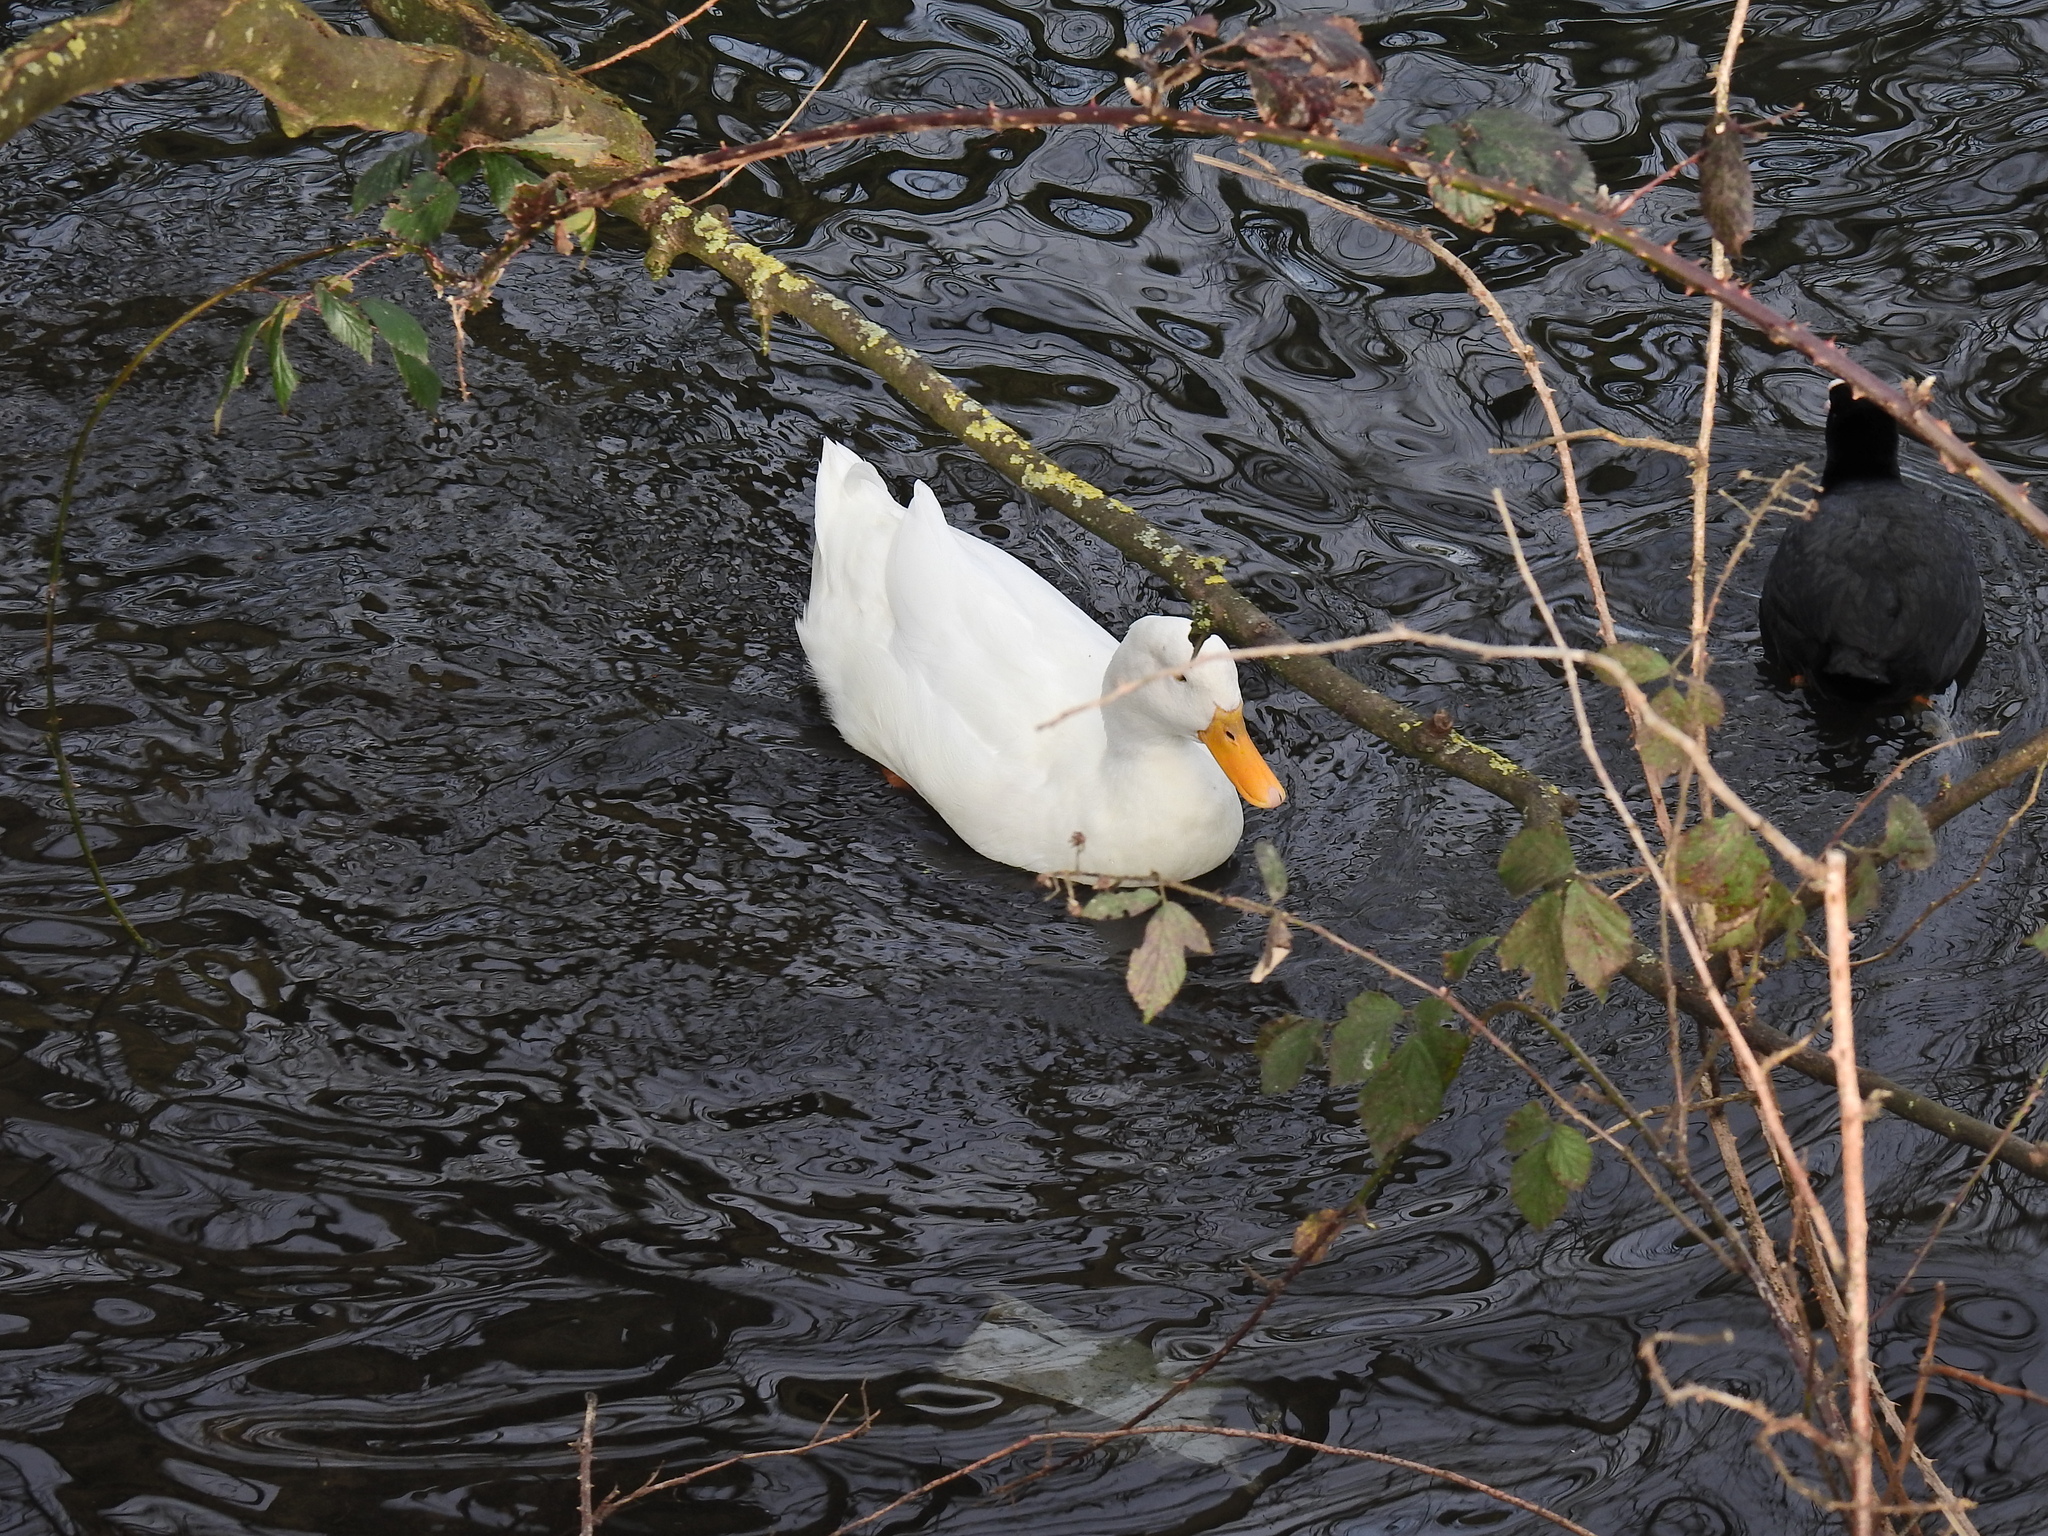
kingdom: Animalia
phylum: Chordata
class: Aves
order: Anseriformes
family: Anatidae
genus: Anas
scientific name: Anas platyrhynchos
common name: Mallard
